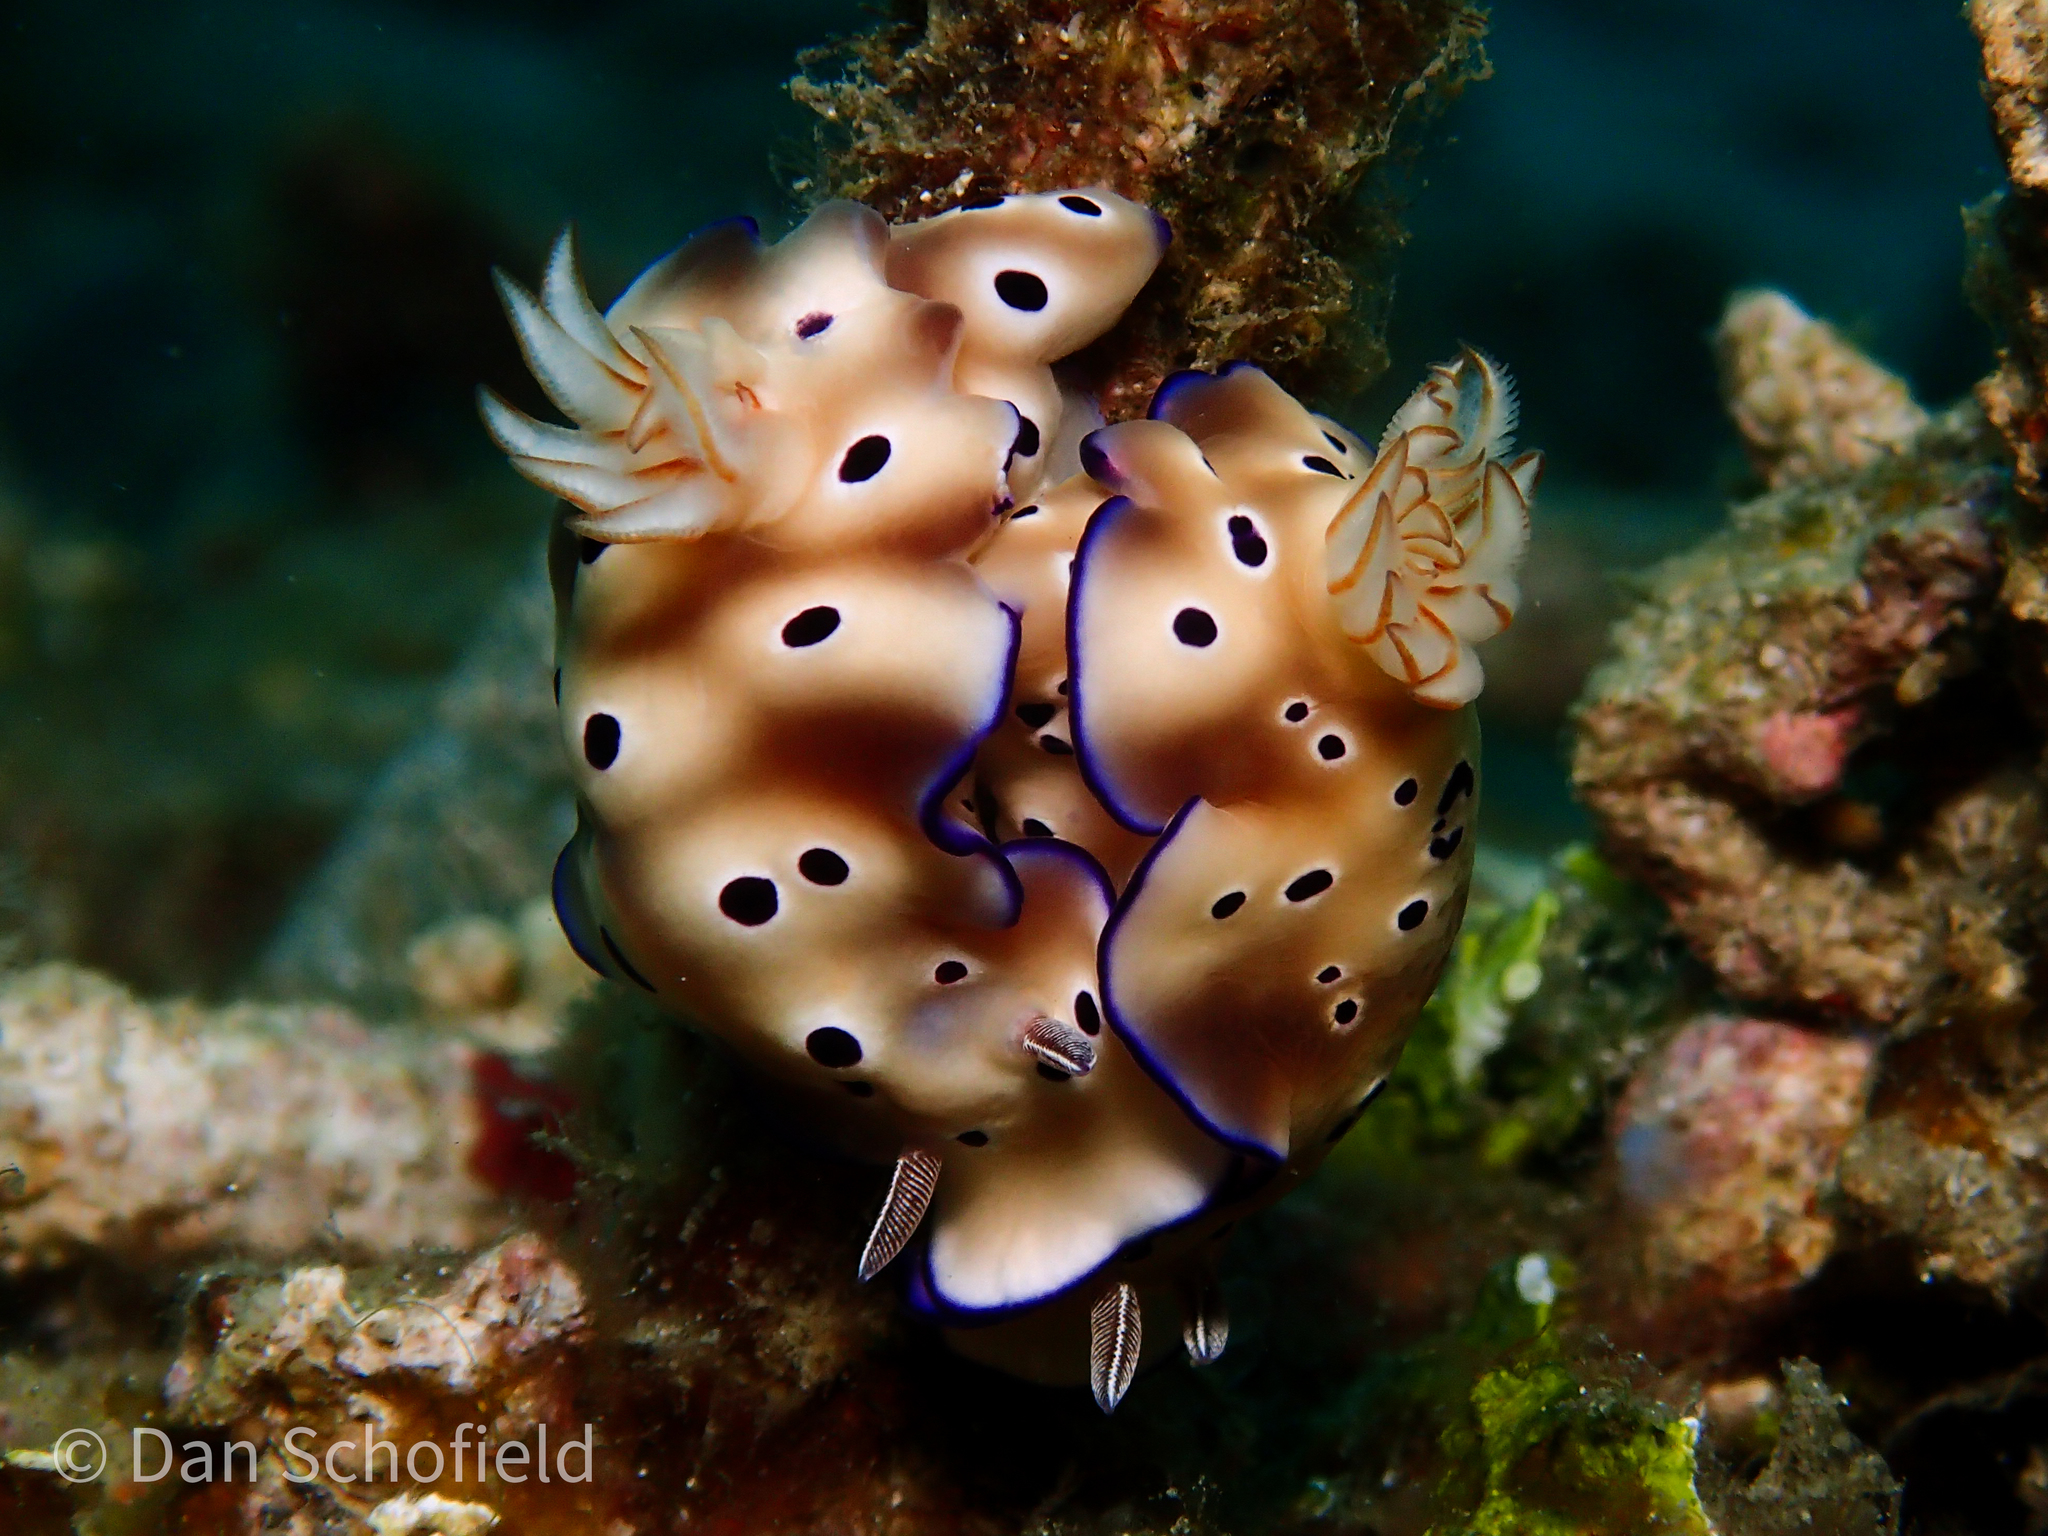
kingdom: Animalia
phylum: Mollusca
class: Gastropoda
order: Nudibranchia
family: Chromodorididae
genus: Hypselodoris
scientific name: Hypselodoris tryoni
